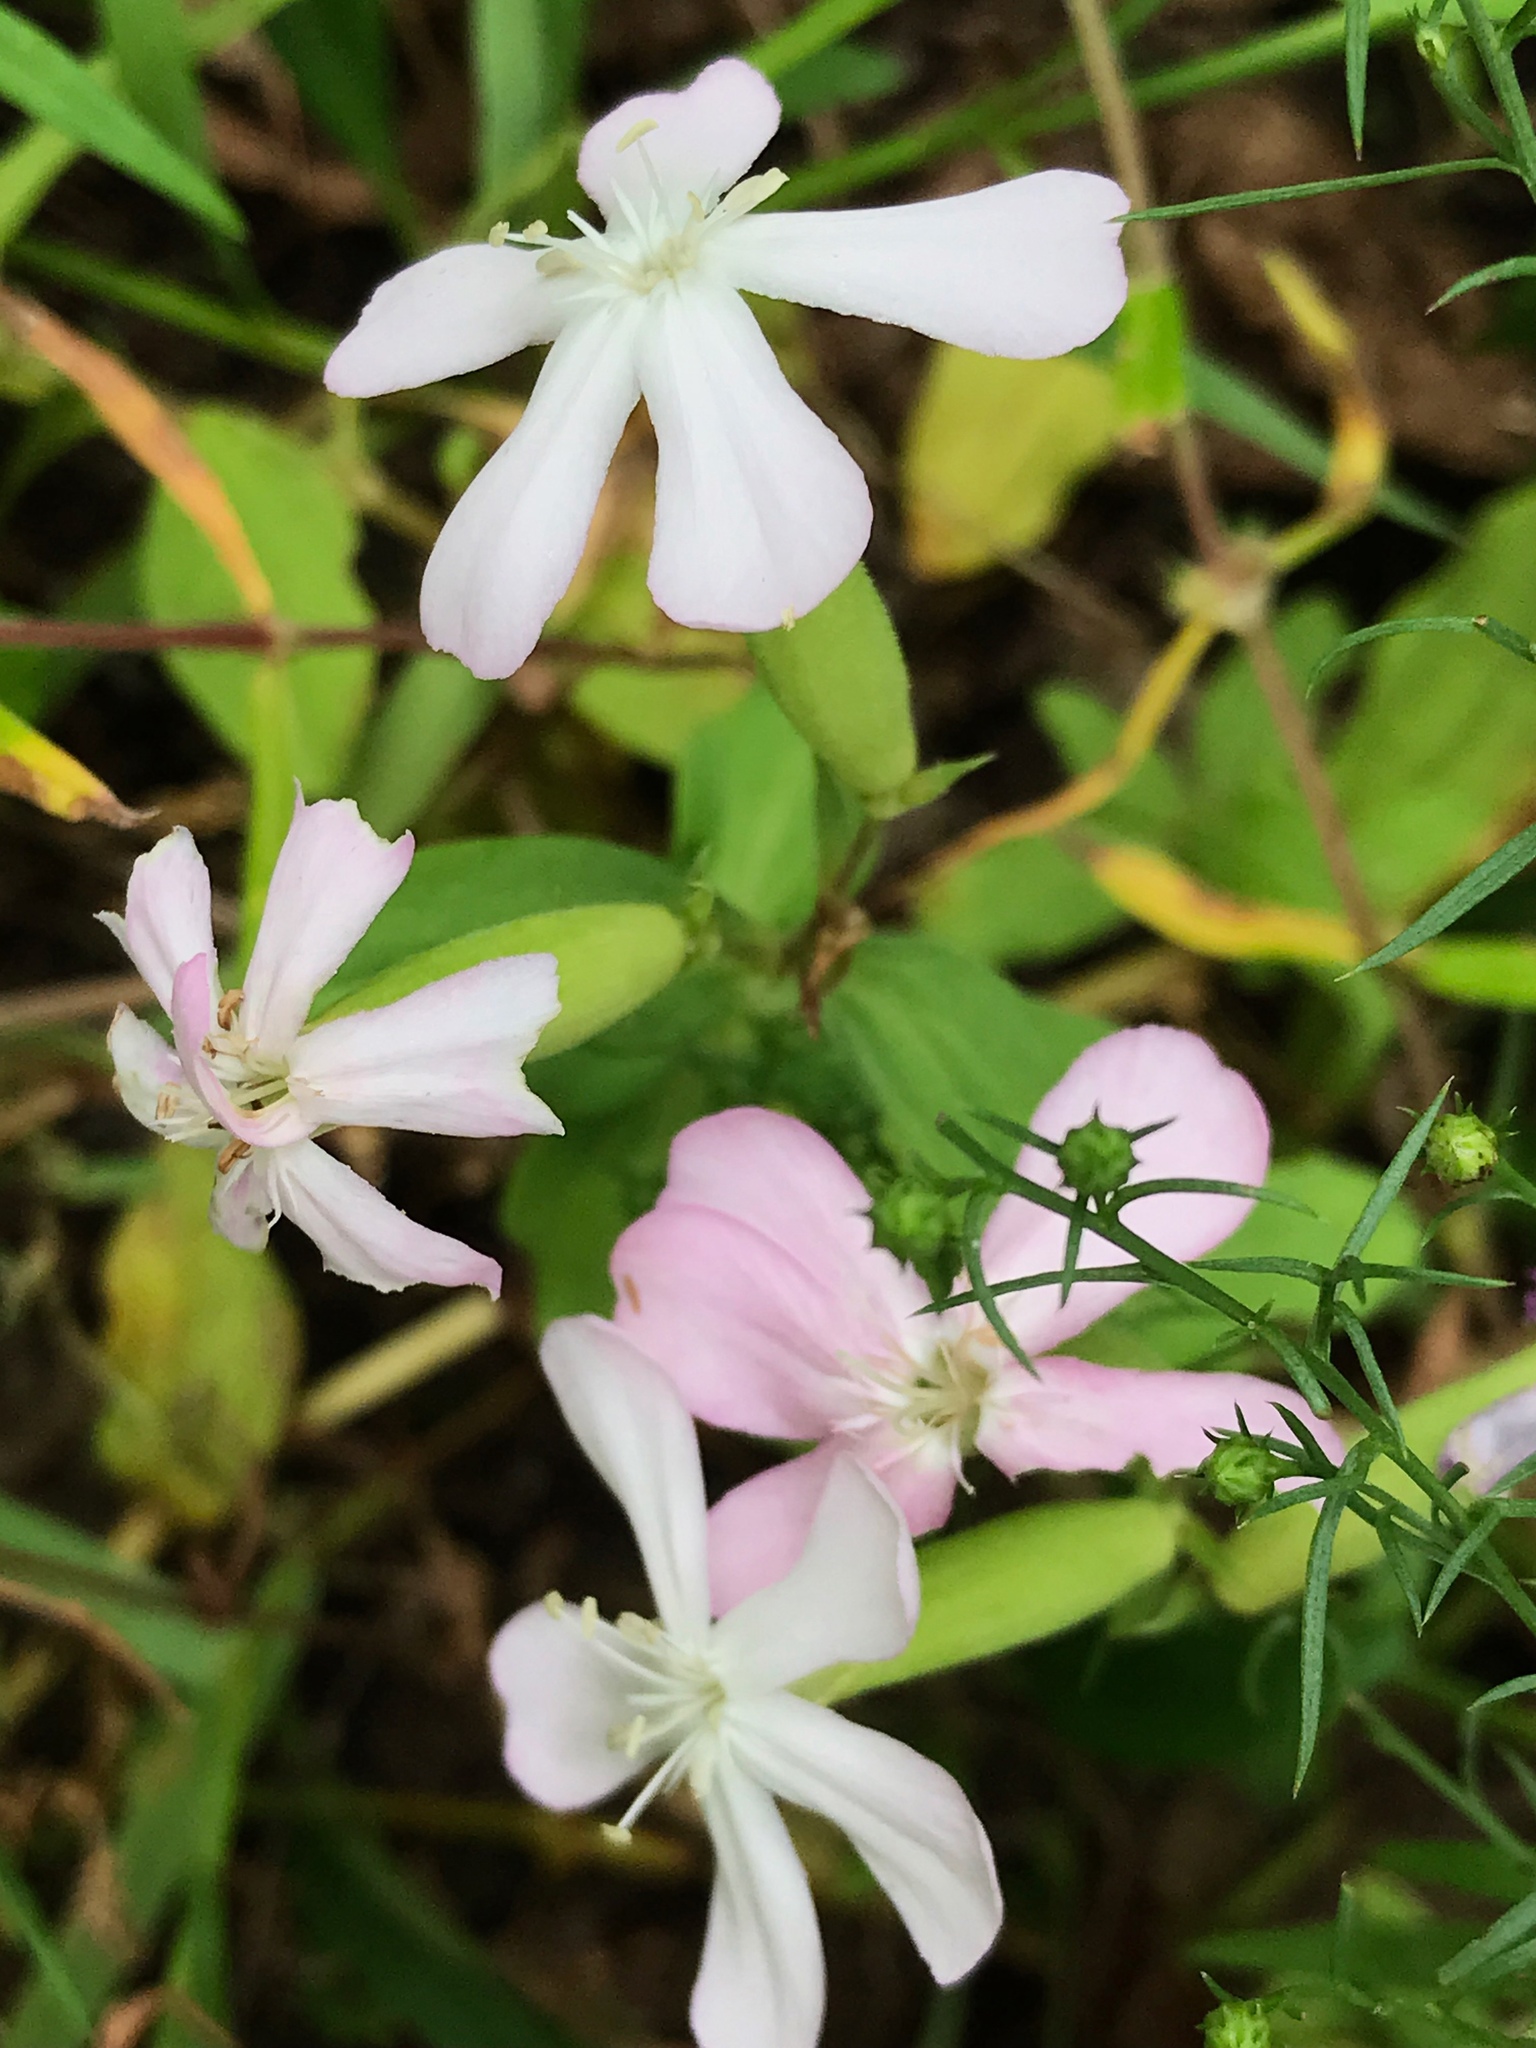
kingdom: Plantae
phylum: Tracheophyta
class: Magnoliopsida
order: Caryophyllales
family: Caryophyllaceae
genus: Saponaria
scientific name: Saponaria officinalis
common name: Soapwort
